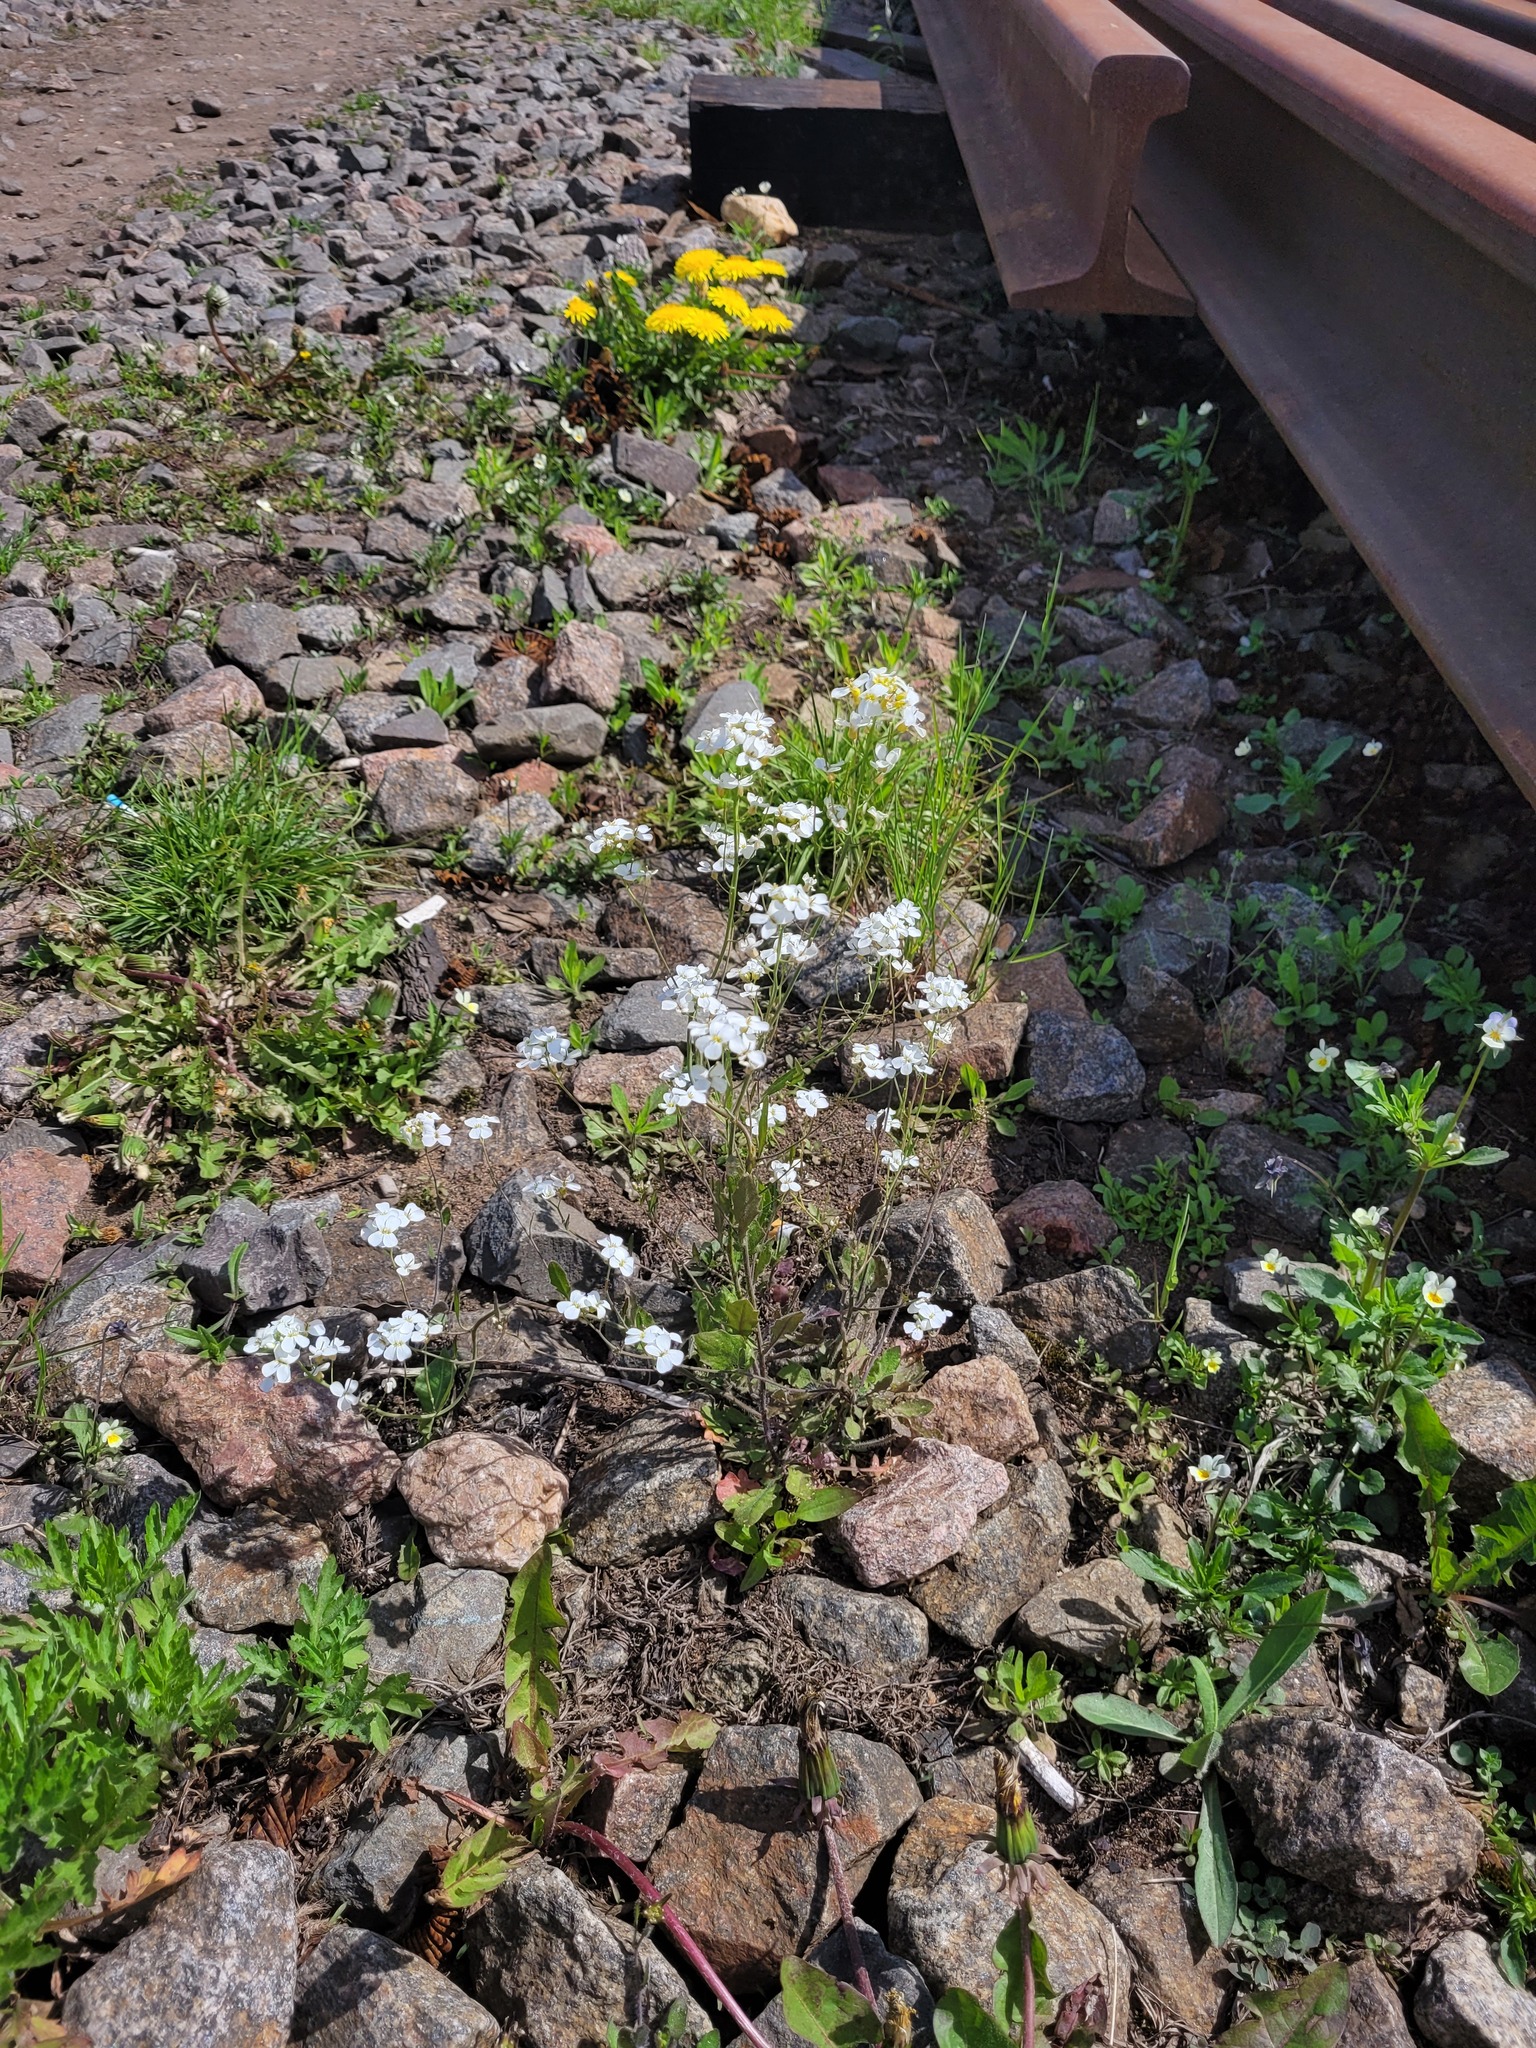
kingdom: Plantae
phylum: Tracheophyta
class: Magnoliopsida
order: Brassicales
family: Brassicaceae
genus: Arabidopsis
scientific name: Arabidopsis arenosa
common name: Sand rock-cress
